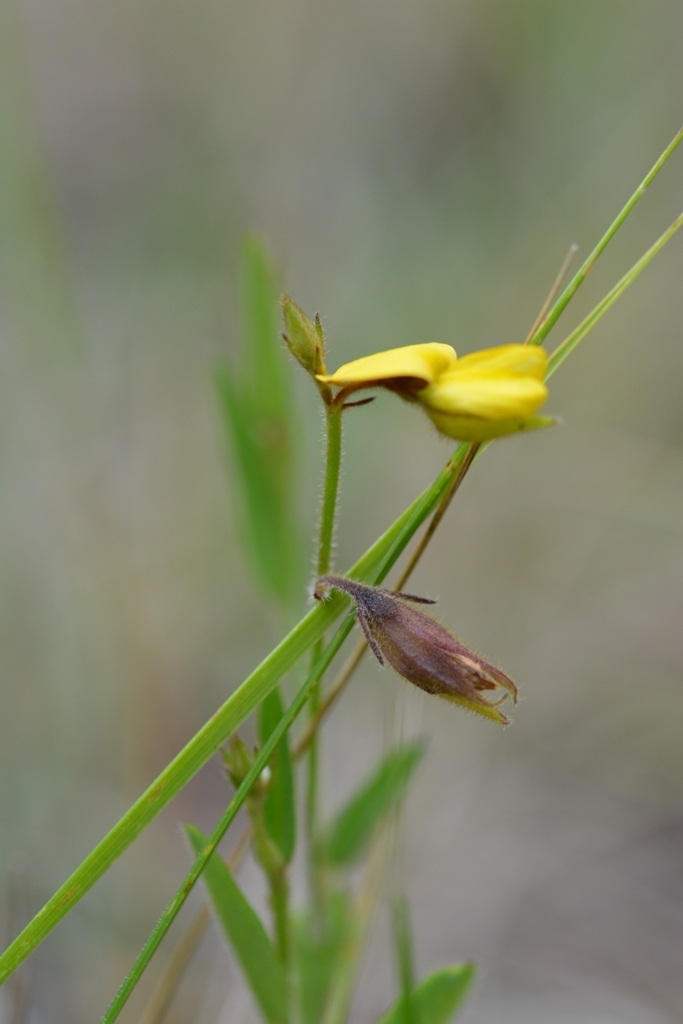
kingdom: Plantae
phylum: Tracheophyta
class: Magnoliopsida
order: Fabales
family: Fabaceae
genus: Crotalaria
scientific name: Crotalaria bupleurifolia
